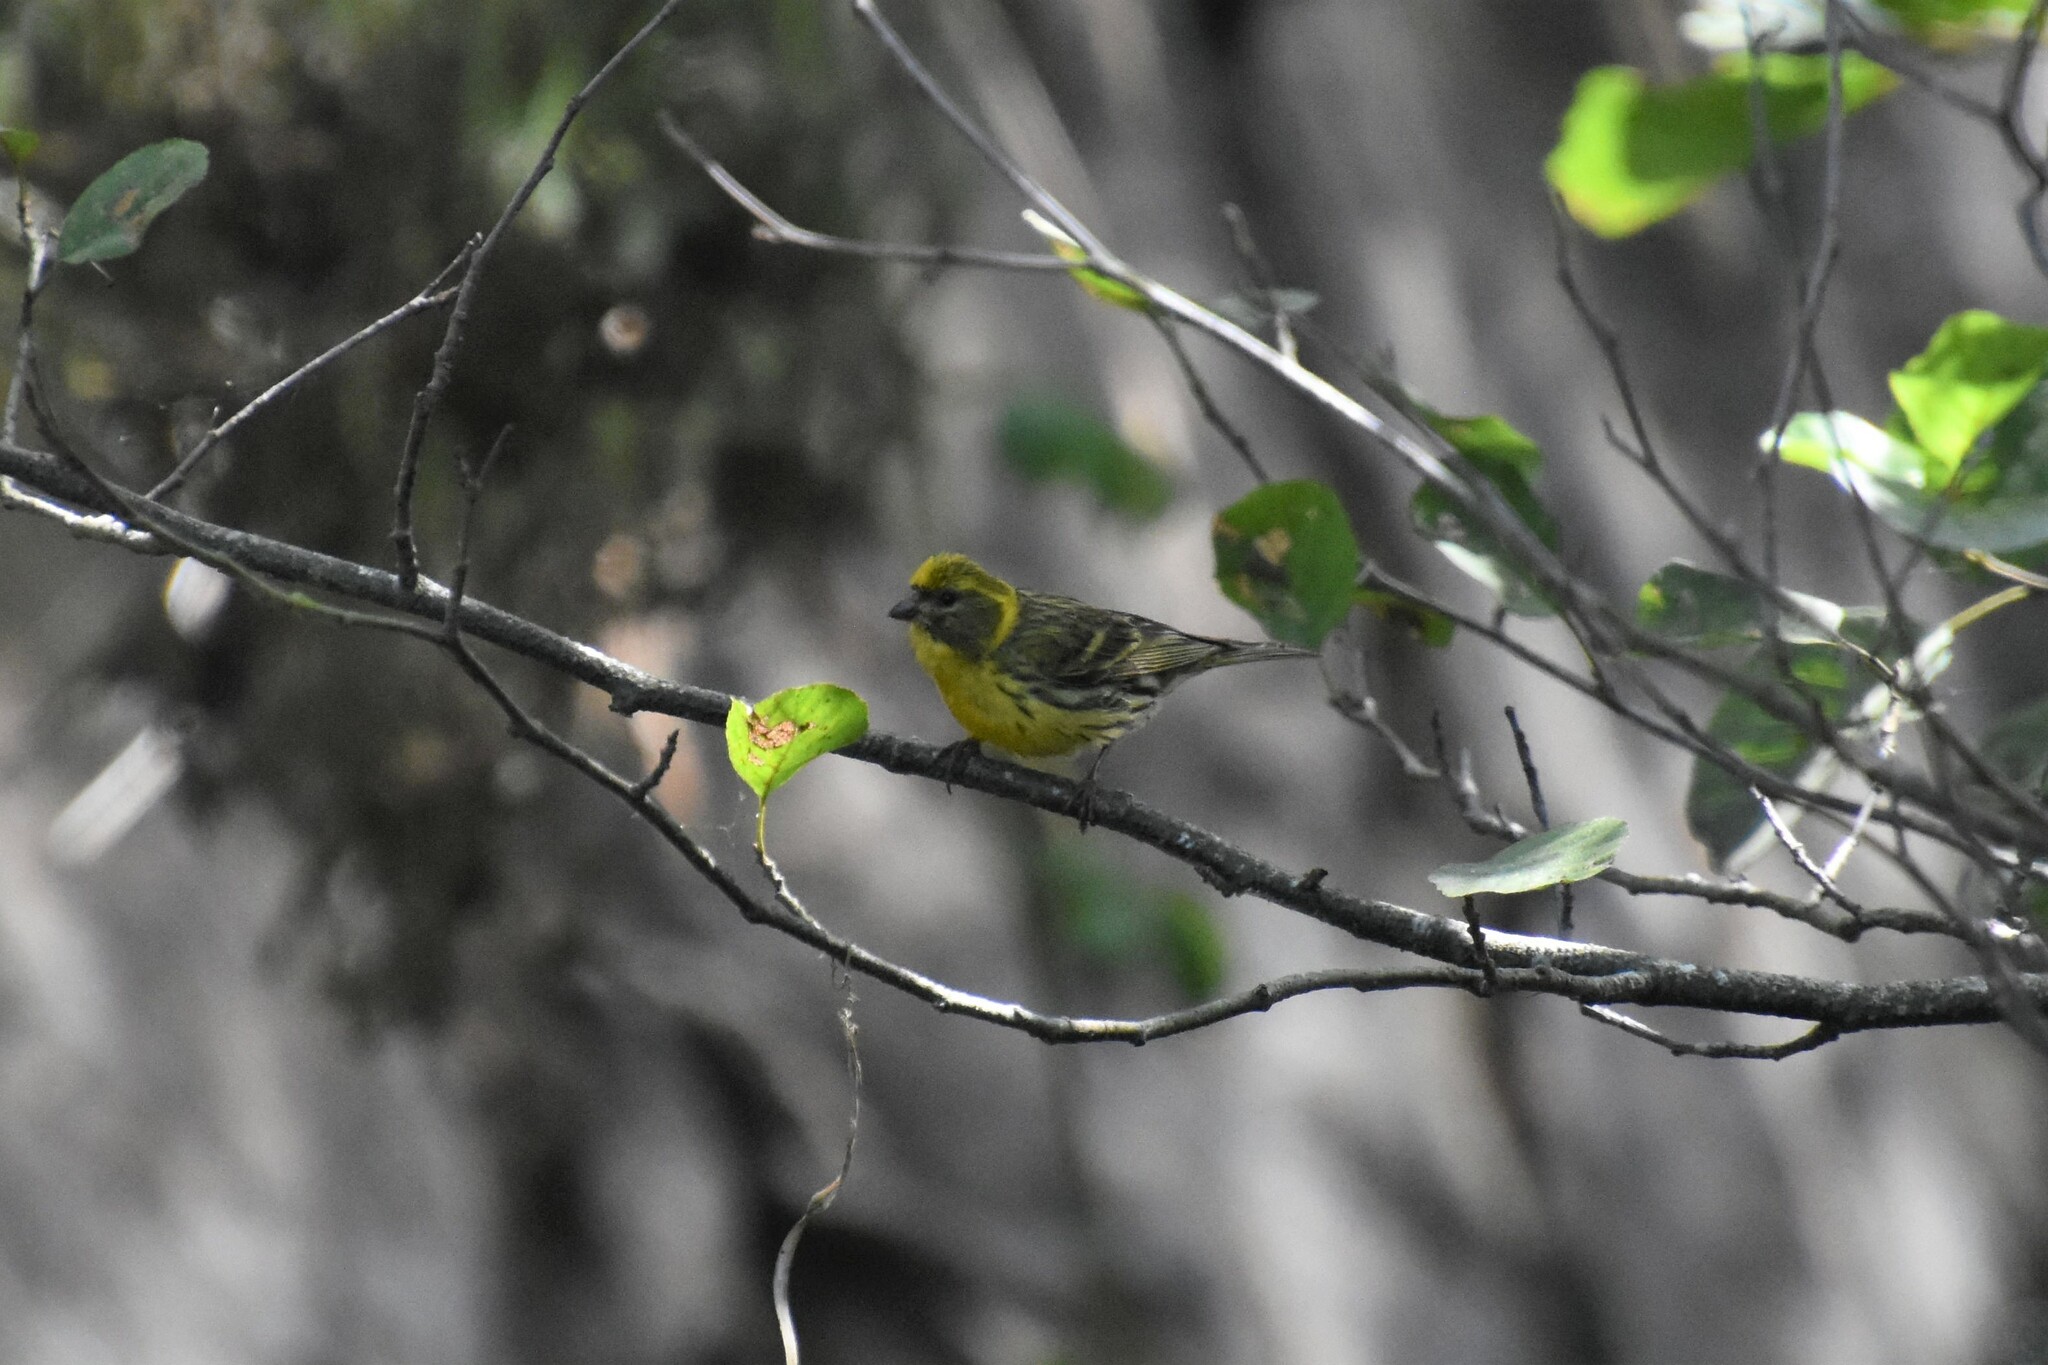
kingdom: Animalia
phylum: Chordata
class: Aves
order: Passeriformes
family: Fringillidae
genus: Serinus
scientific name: Serinus serinus
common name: European serin
